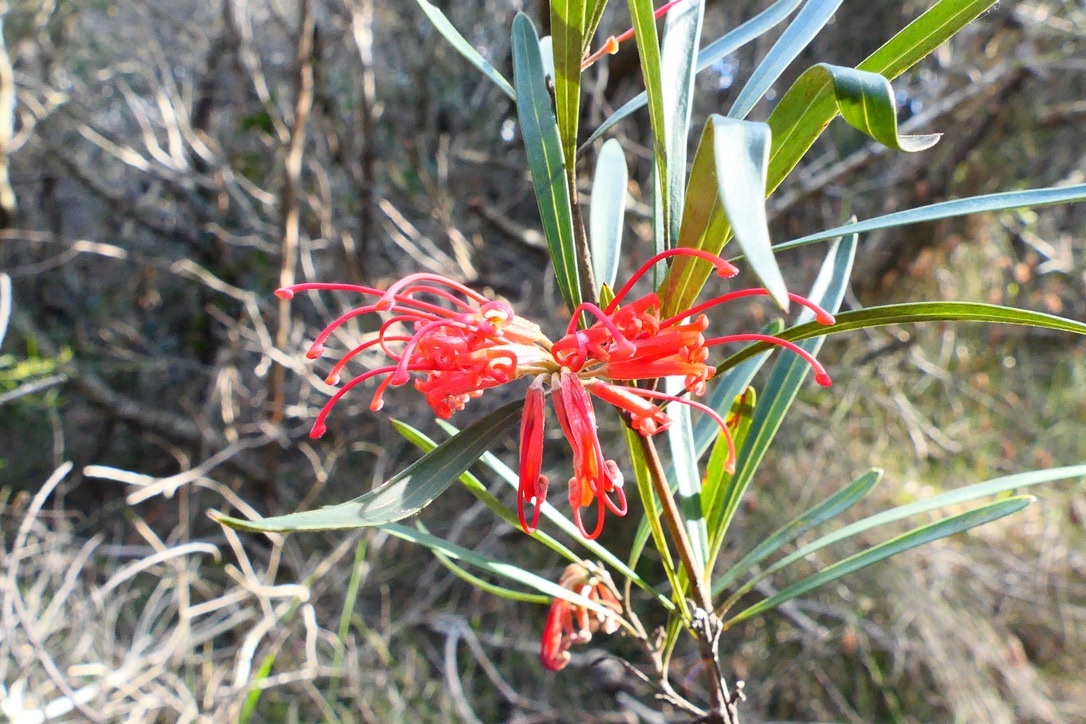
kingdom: Plantae
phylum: Tracheophyta
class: Magnoliopsida
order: Proteales
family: Proteaceae
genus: Grevillea
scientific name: Grevillea oleoides
